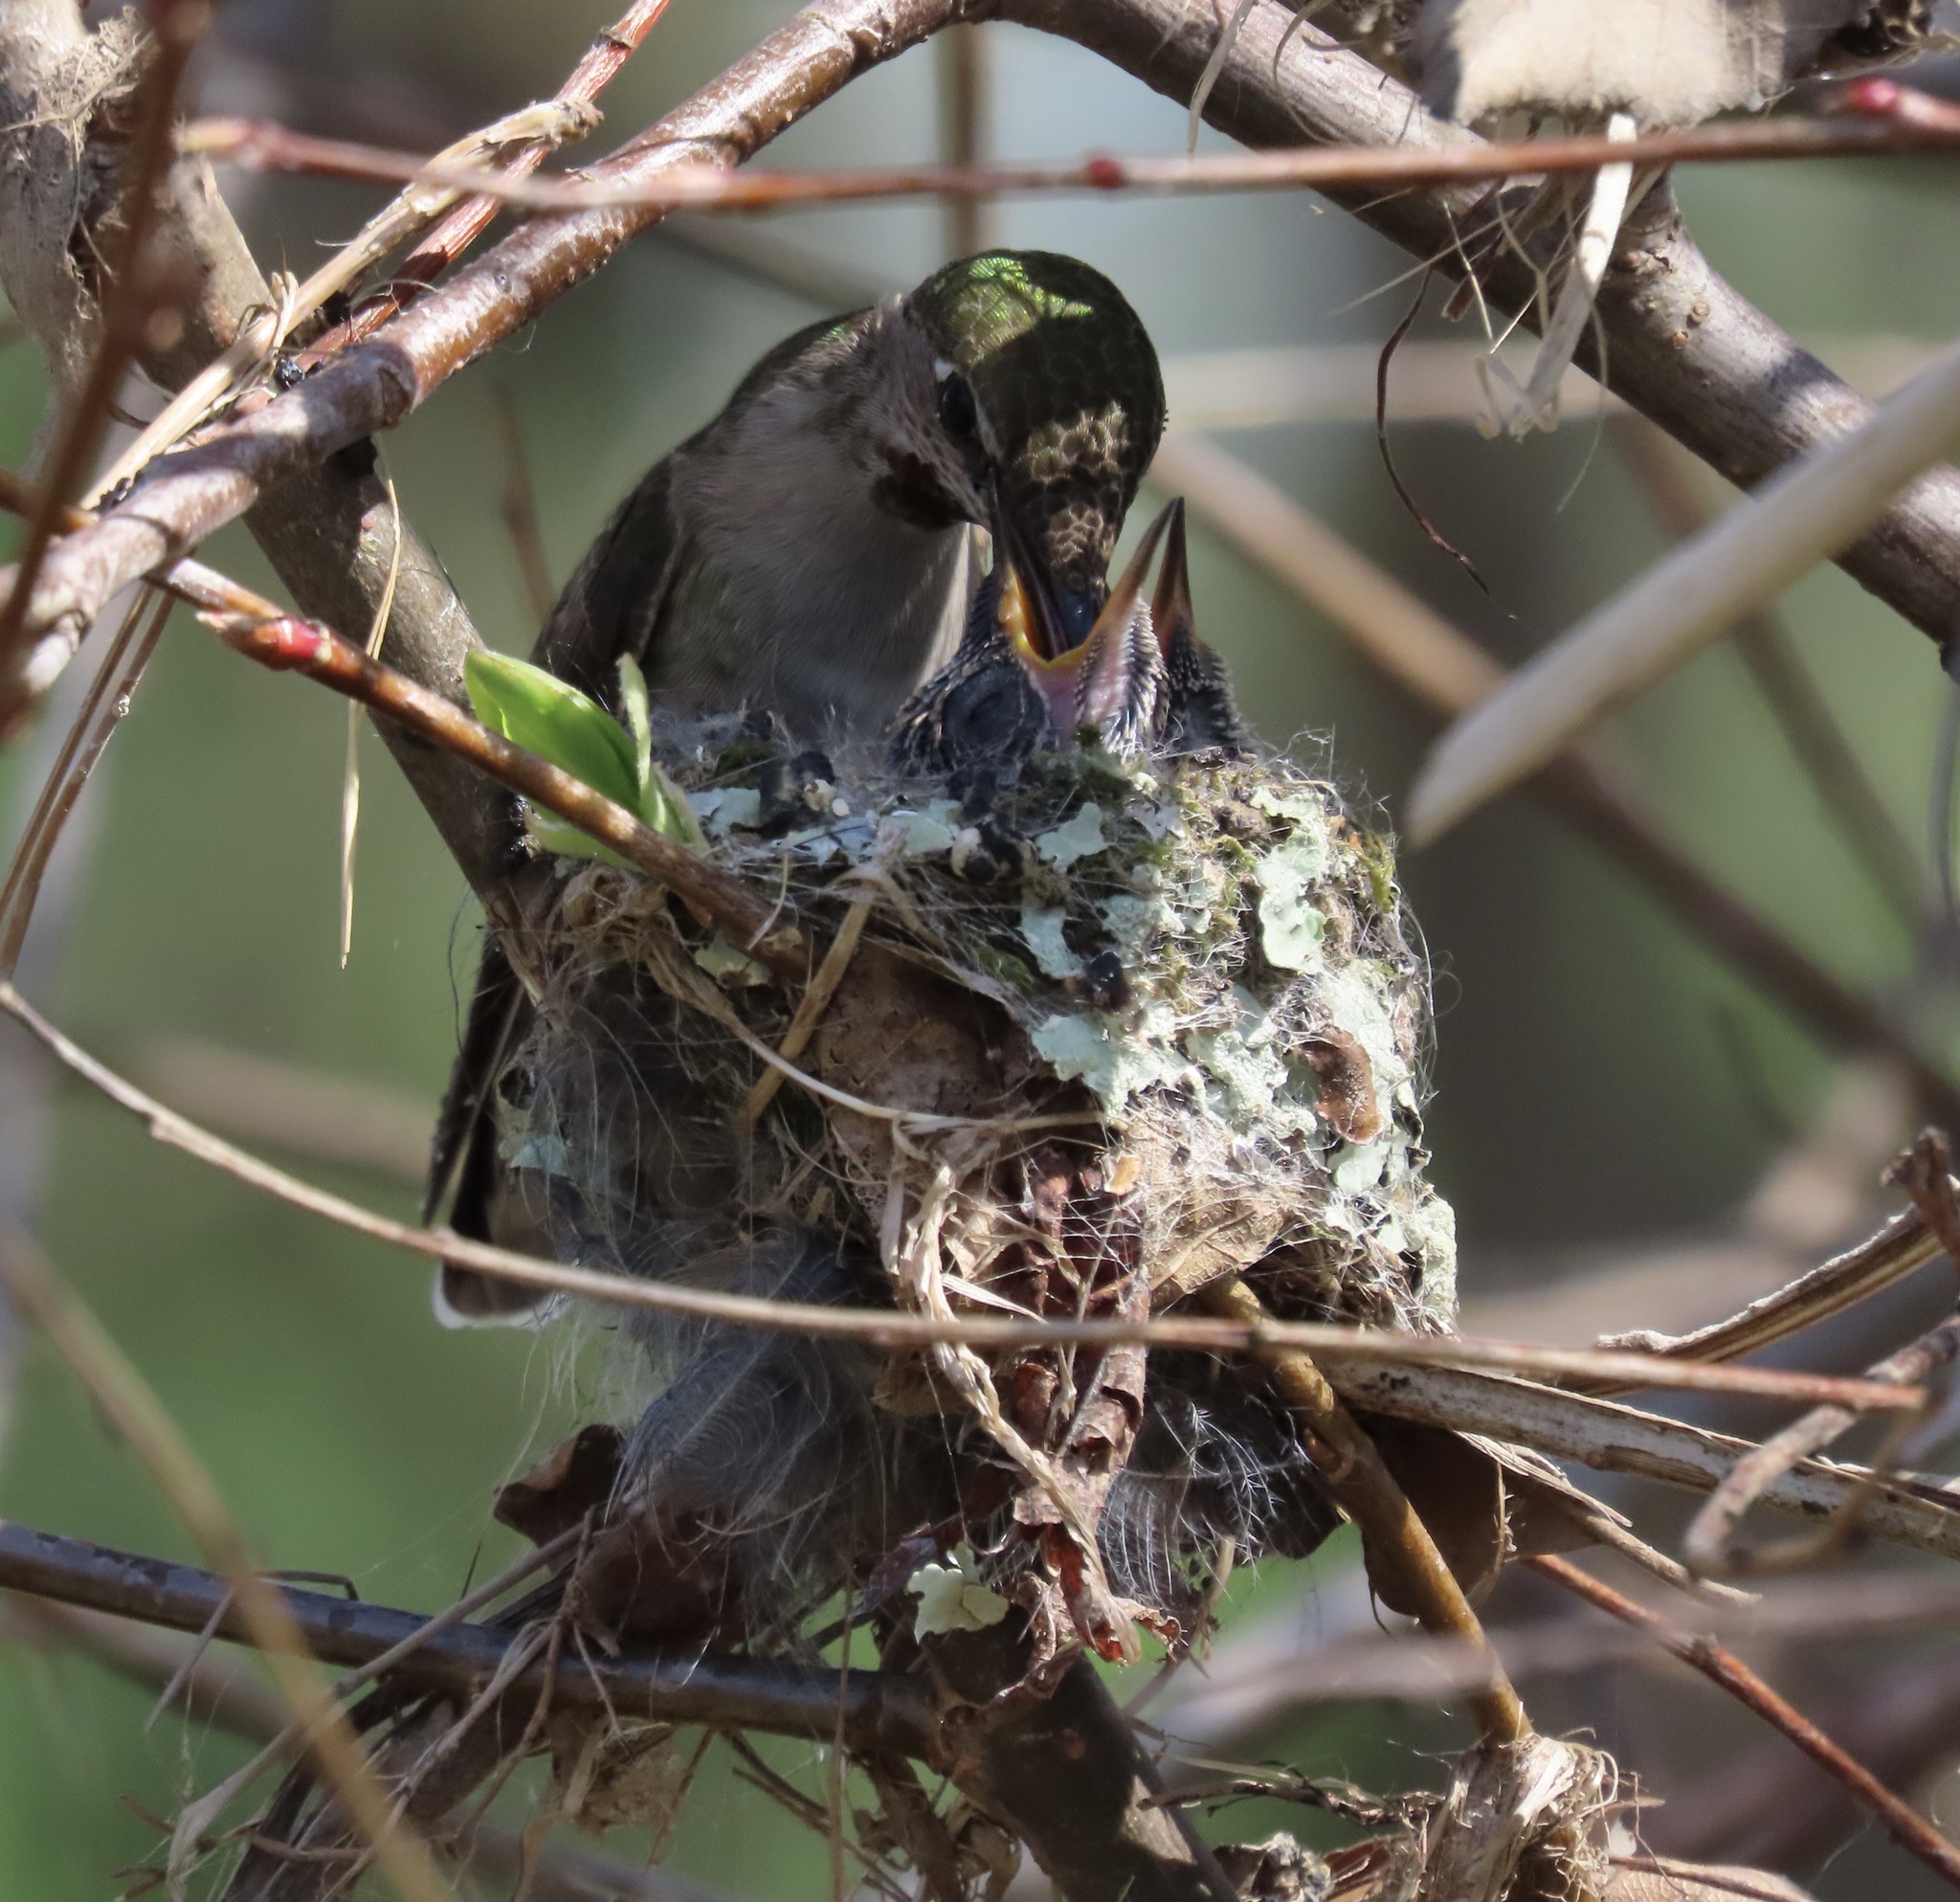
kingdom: Animalia
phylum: Chordata
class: Aves
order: Apodiformes
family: Trochilidae
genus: Calypte
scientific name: Calypte anna
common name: Anna's hummingbird
